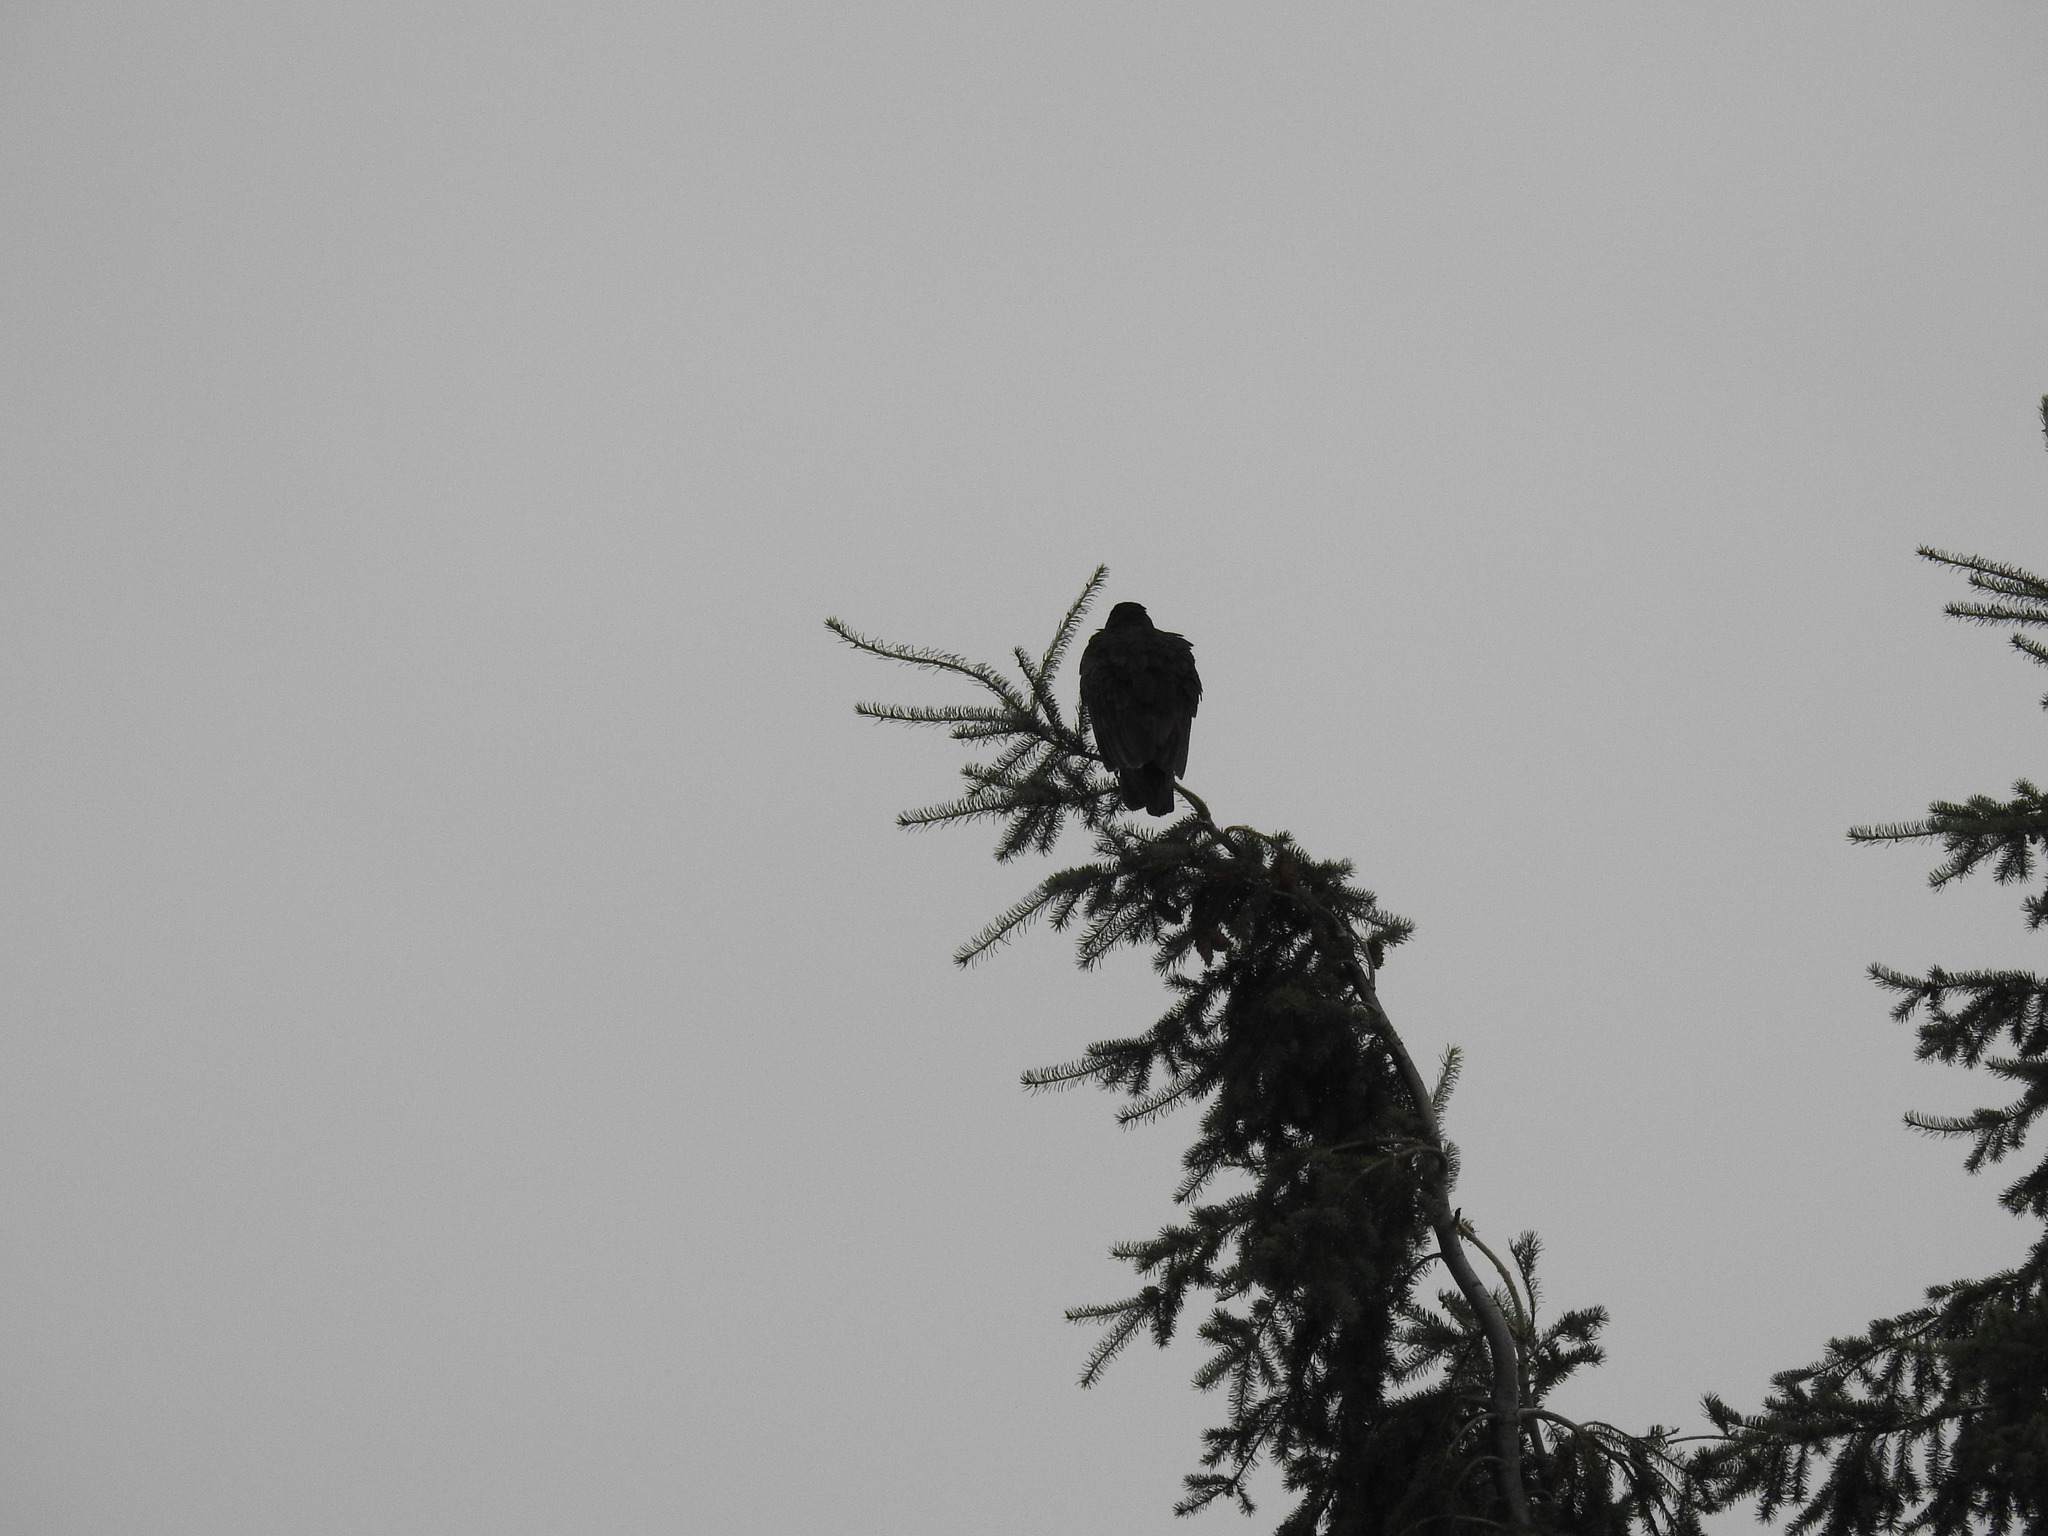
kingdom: Animalia
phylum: Chordata
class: Aves
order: Accipitriformes
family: Cathartidae
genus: Cathartes
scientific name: Cathartes aura
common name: Turkey vulture
